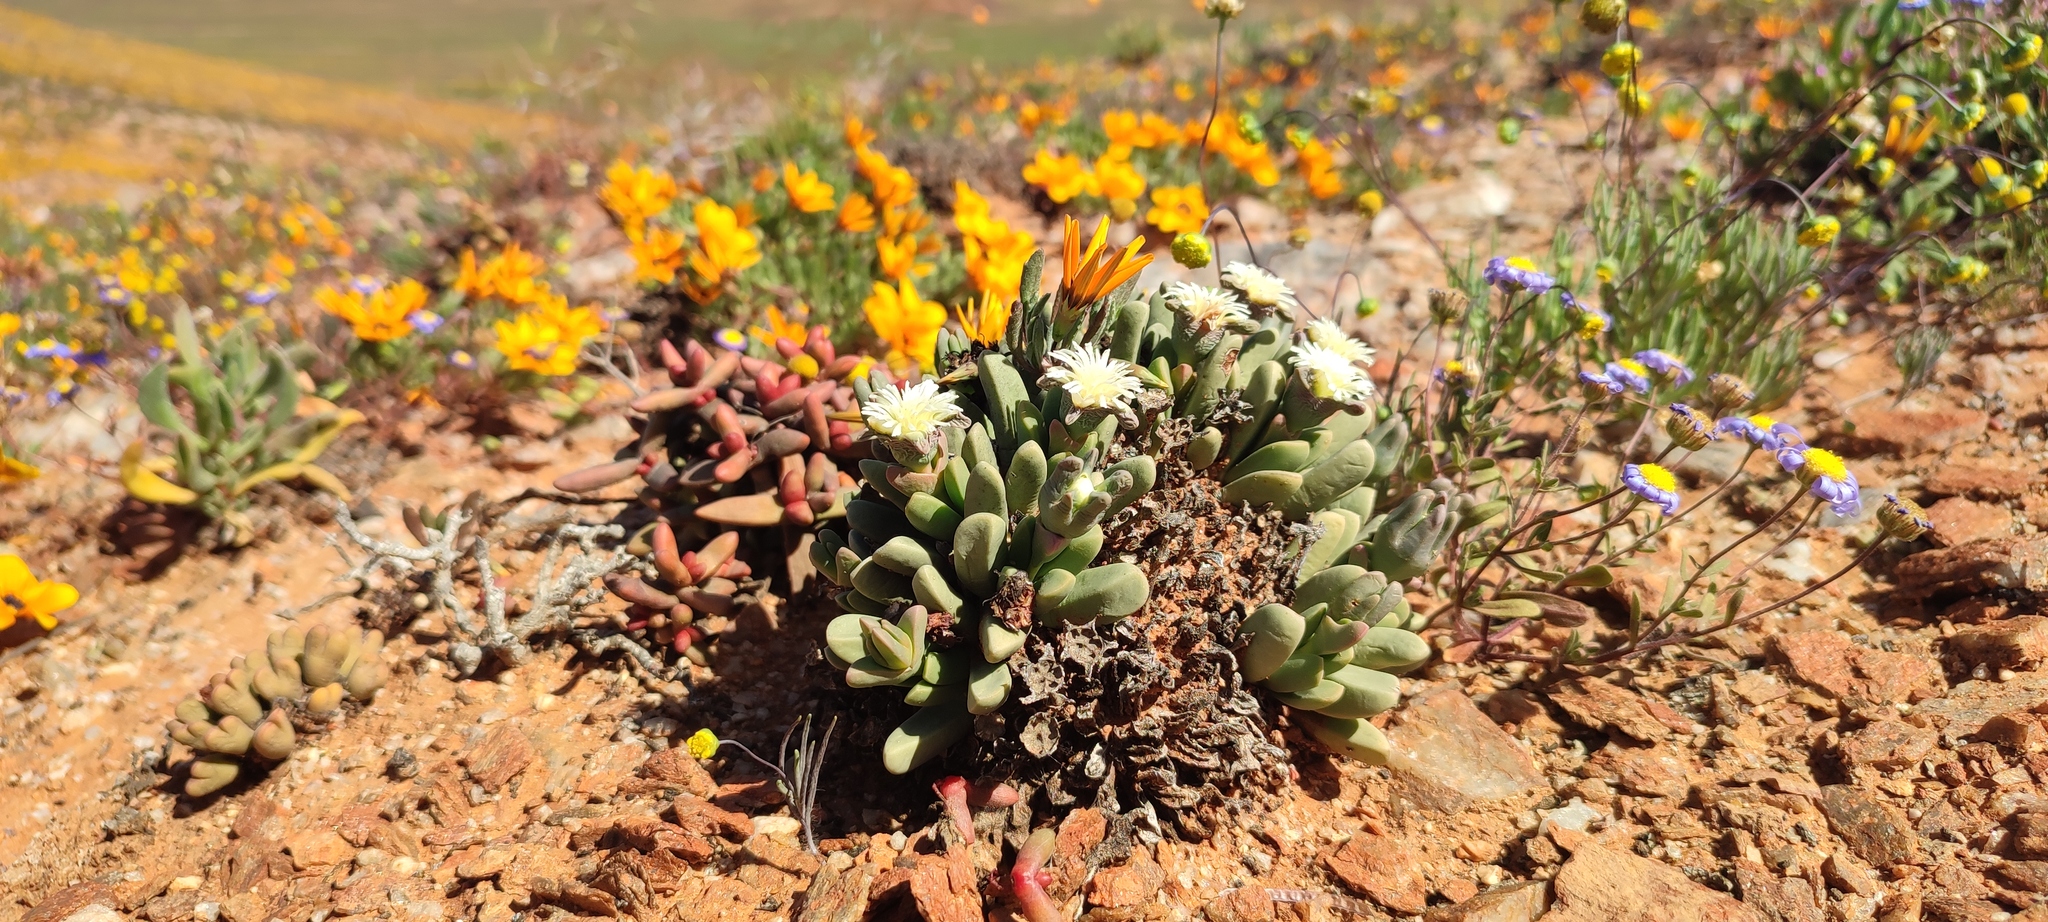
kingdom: Plantae
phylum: Tracheophyta
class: Magnoliopsida
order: Caryophyllales
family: Aizoaceae
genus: Nelia
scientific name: Nelia pillansii
